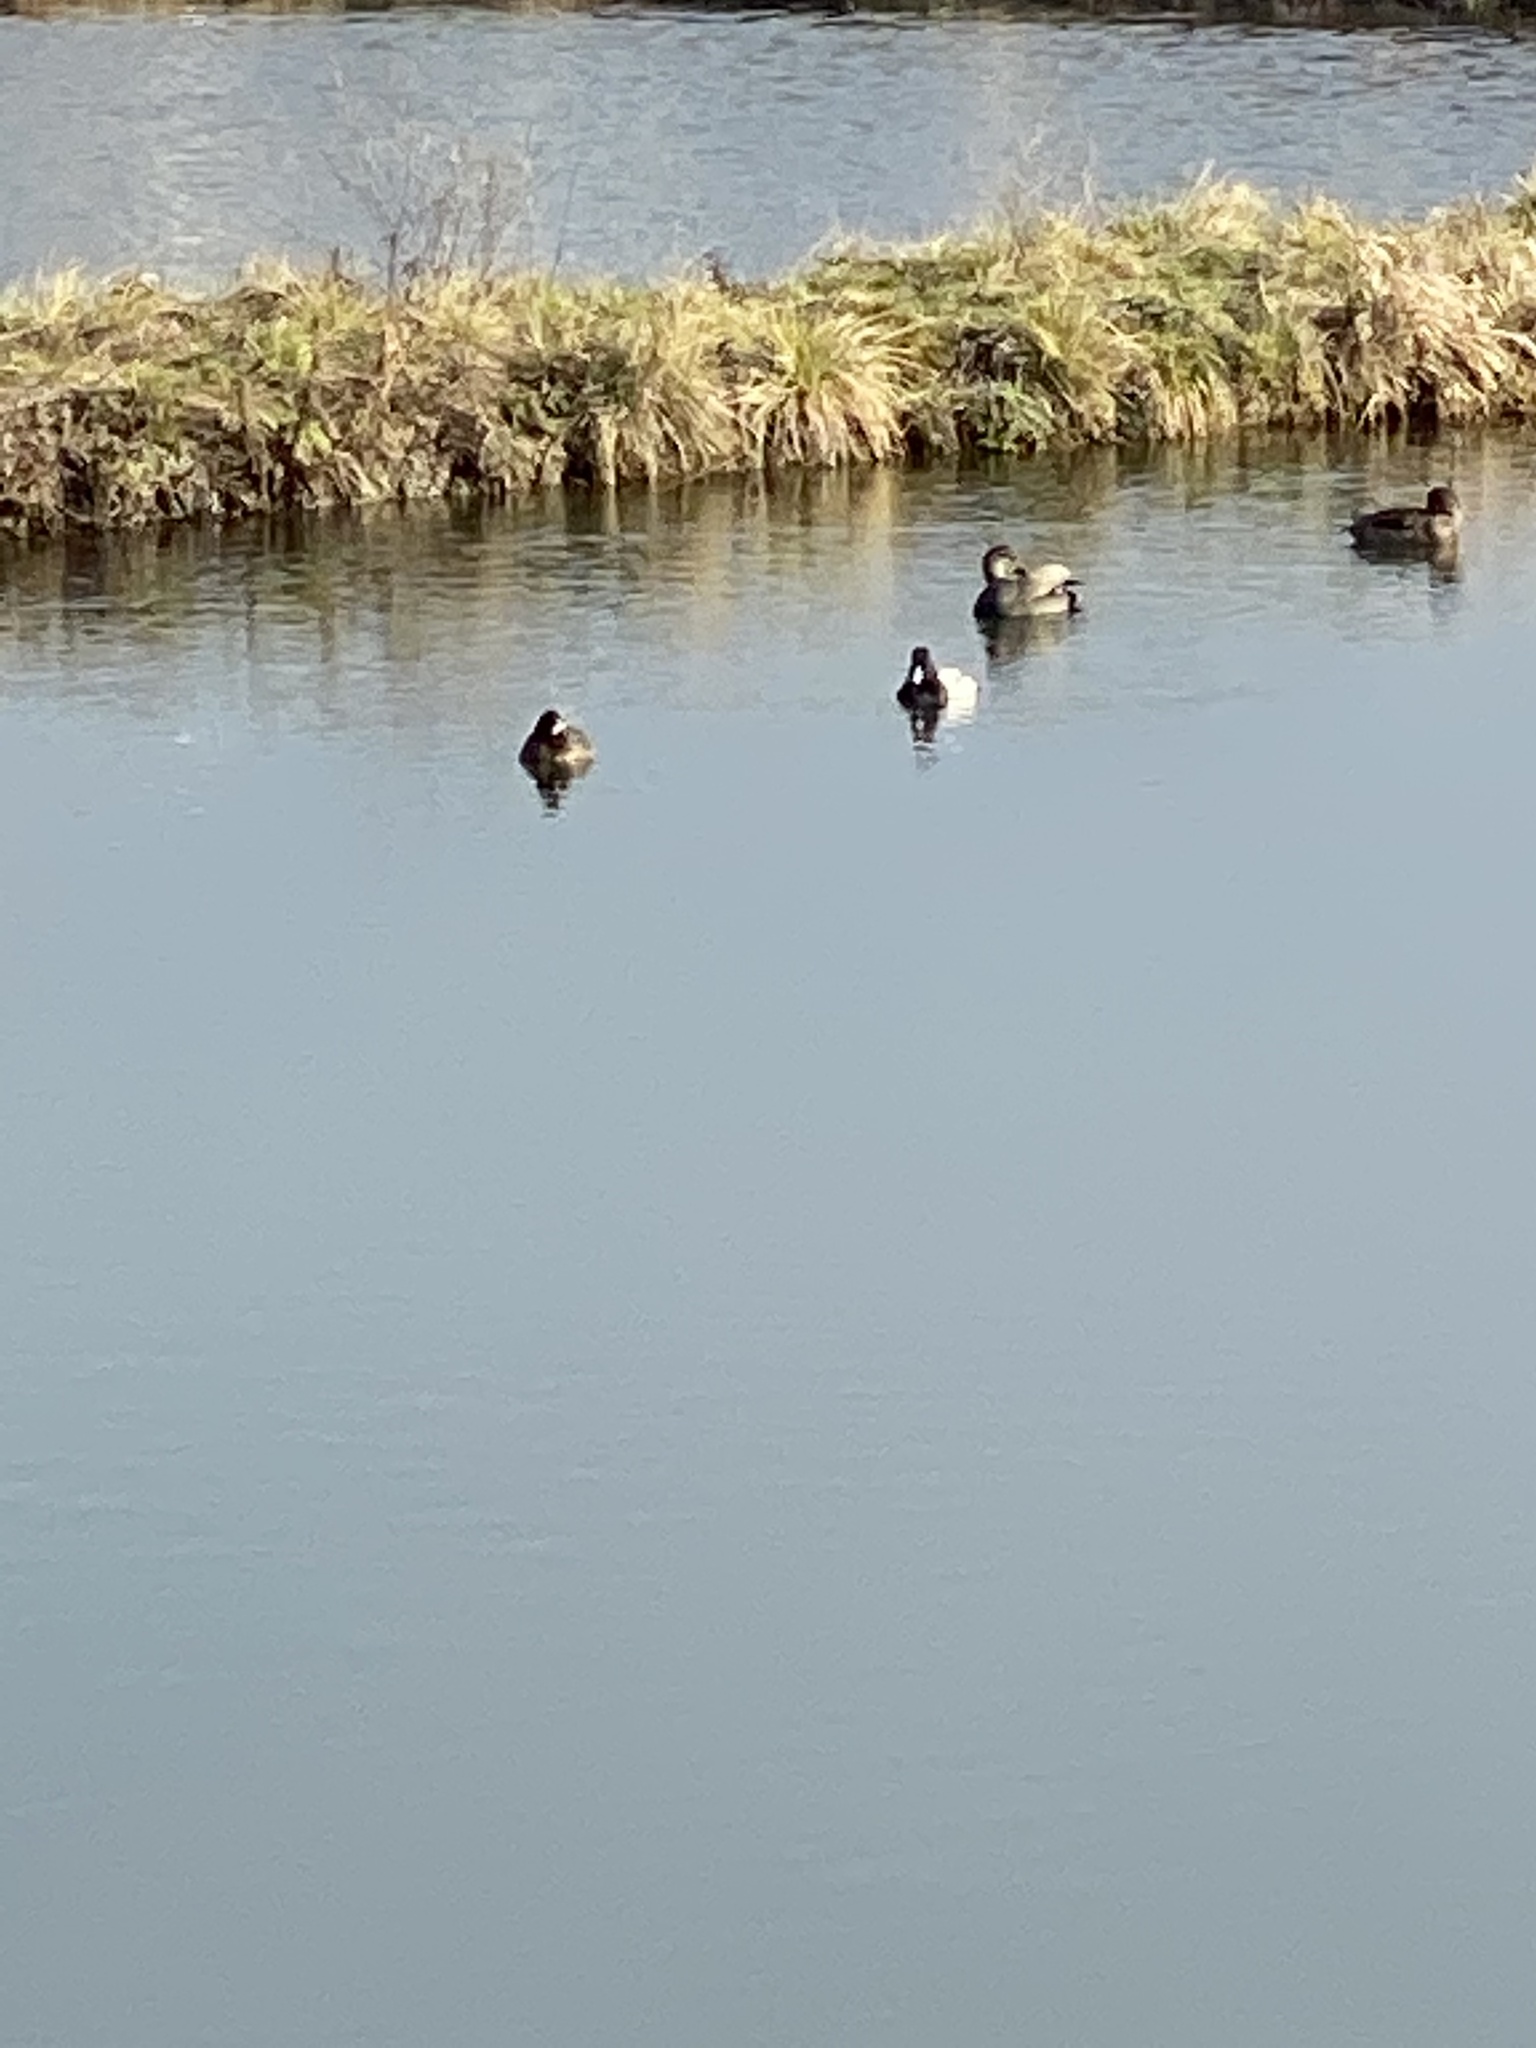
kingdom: Animalia
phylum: Chordata
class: Aves
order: Anseriformes
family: Anatidae
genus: Aythya
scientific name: Aythya affinis
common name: Lesser scaup
